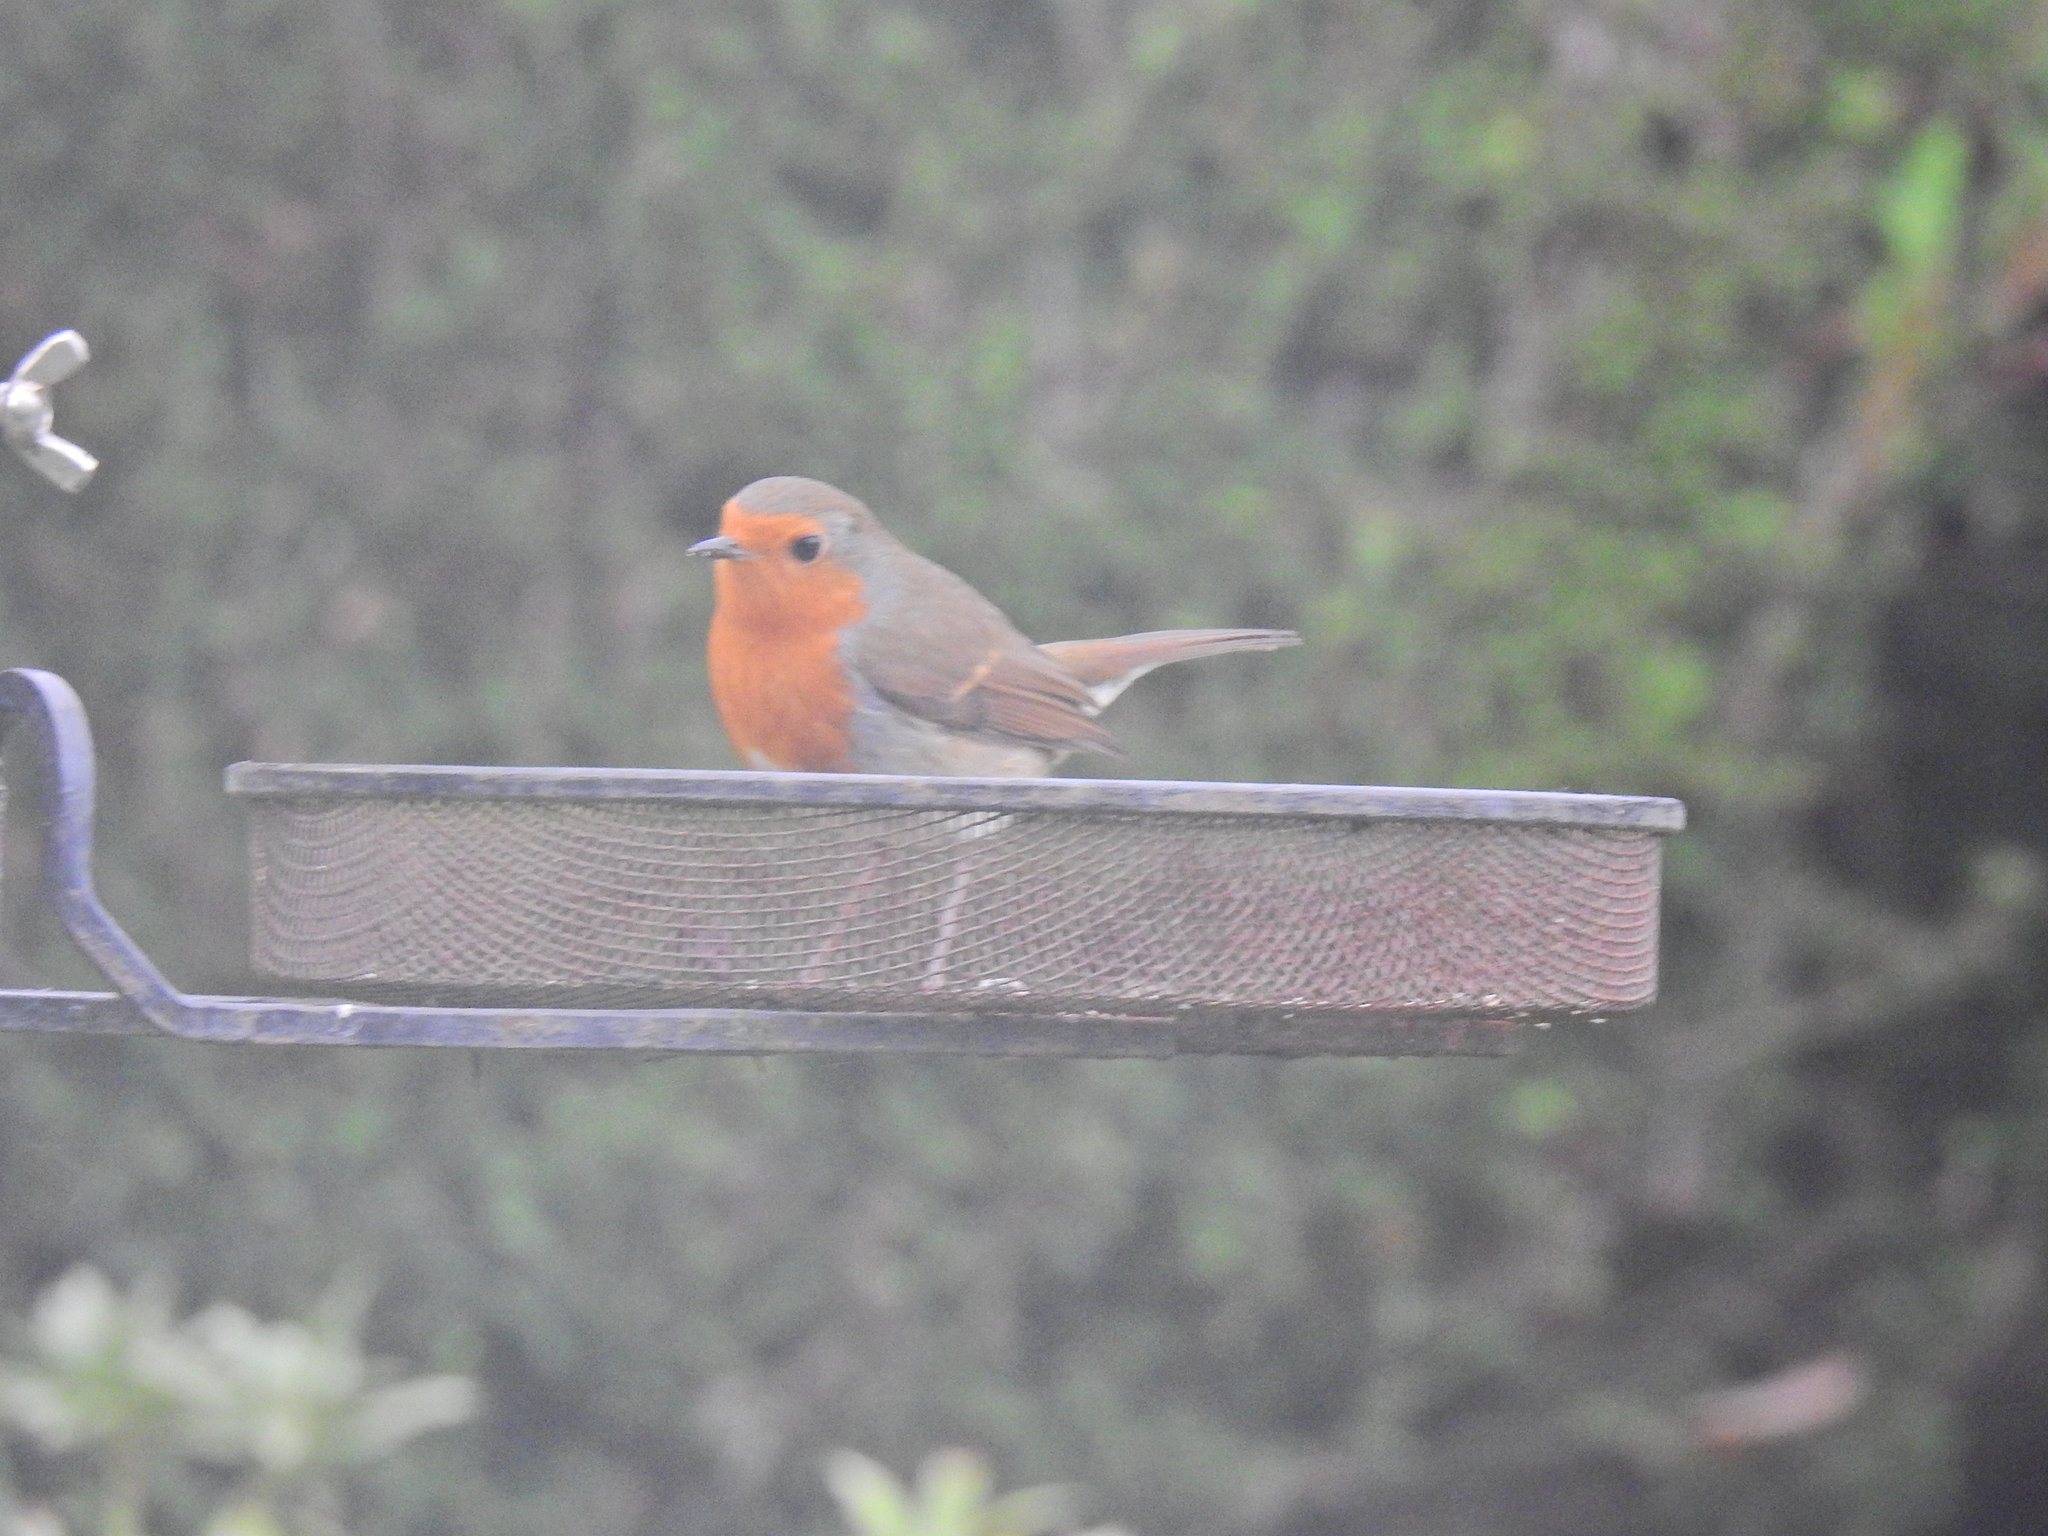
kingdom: Animalia
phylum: Chordata
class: Aves
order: Passeriformes
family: Muscicapidae
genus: Erithacus
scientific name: Erithacus rubecula
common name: European robin
